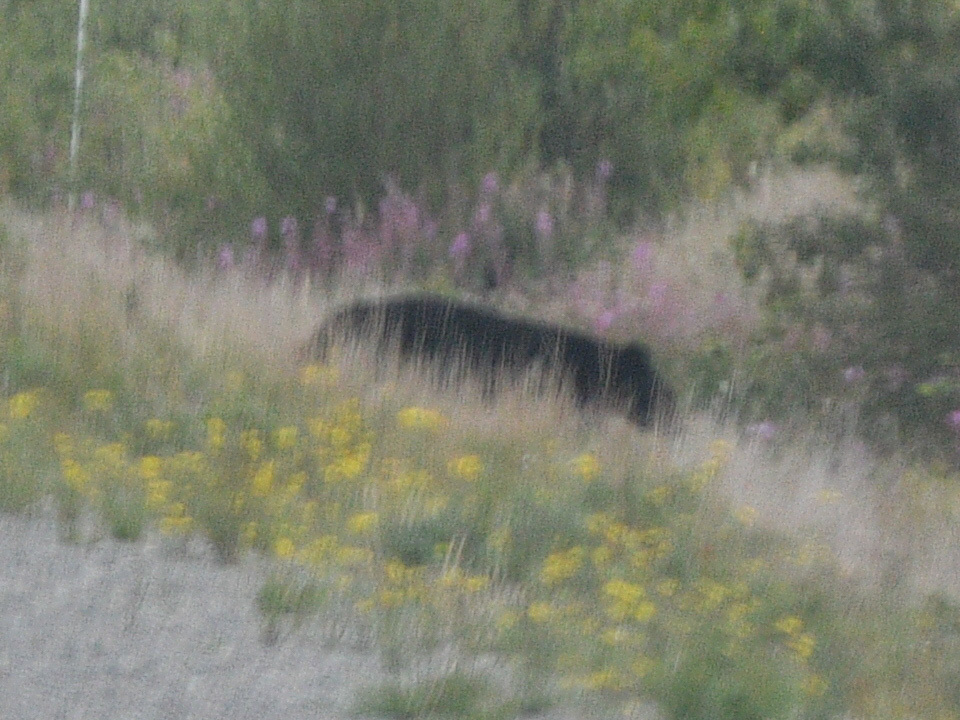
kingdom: Animalia
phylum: Chordata
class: Mammalia
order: Carnivora
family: Ursidae
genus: Ursus
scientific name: Ursus americanus
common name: American black bear
